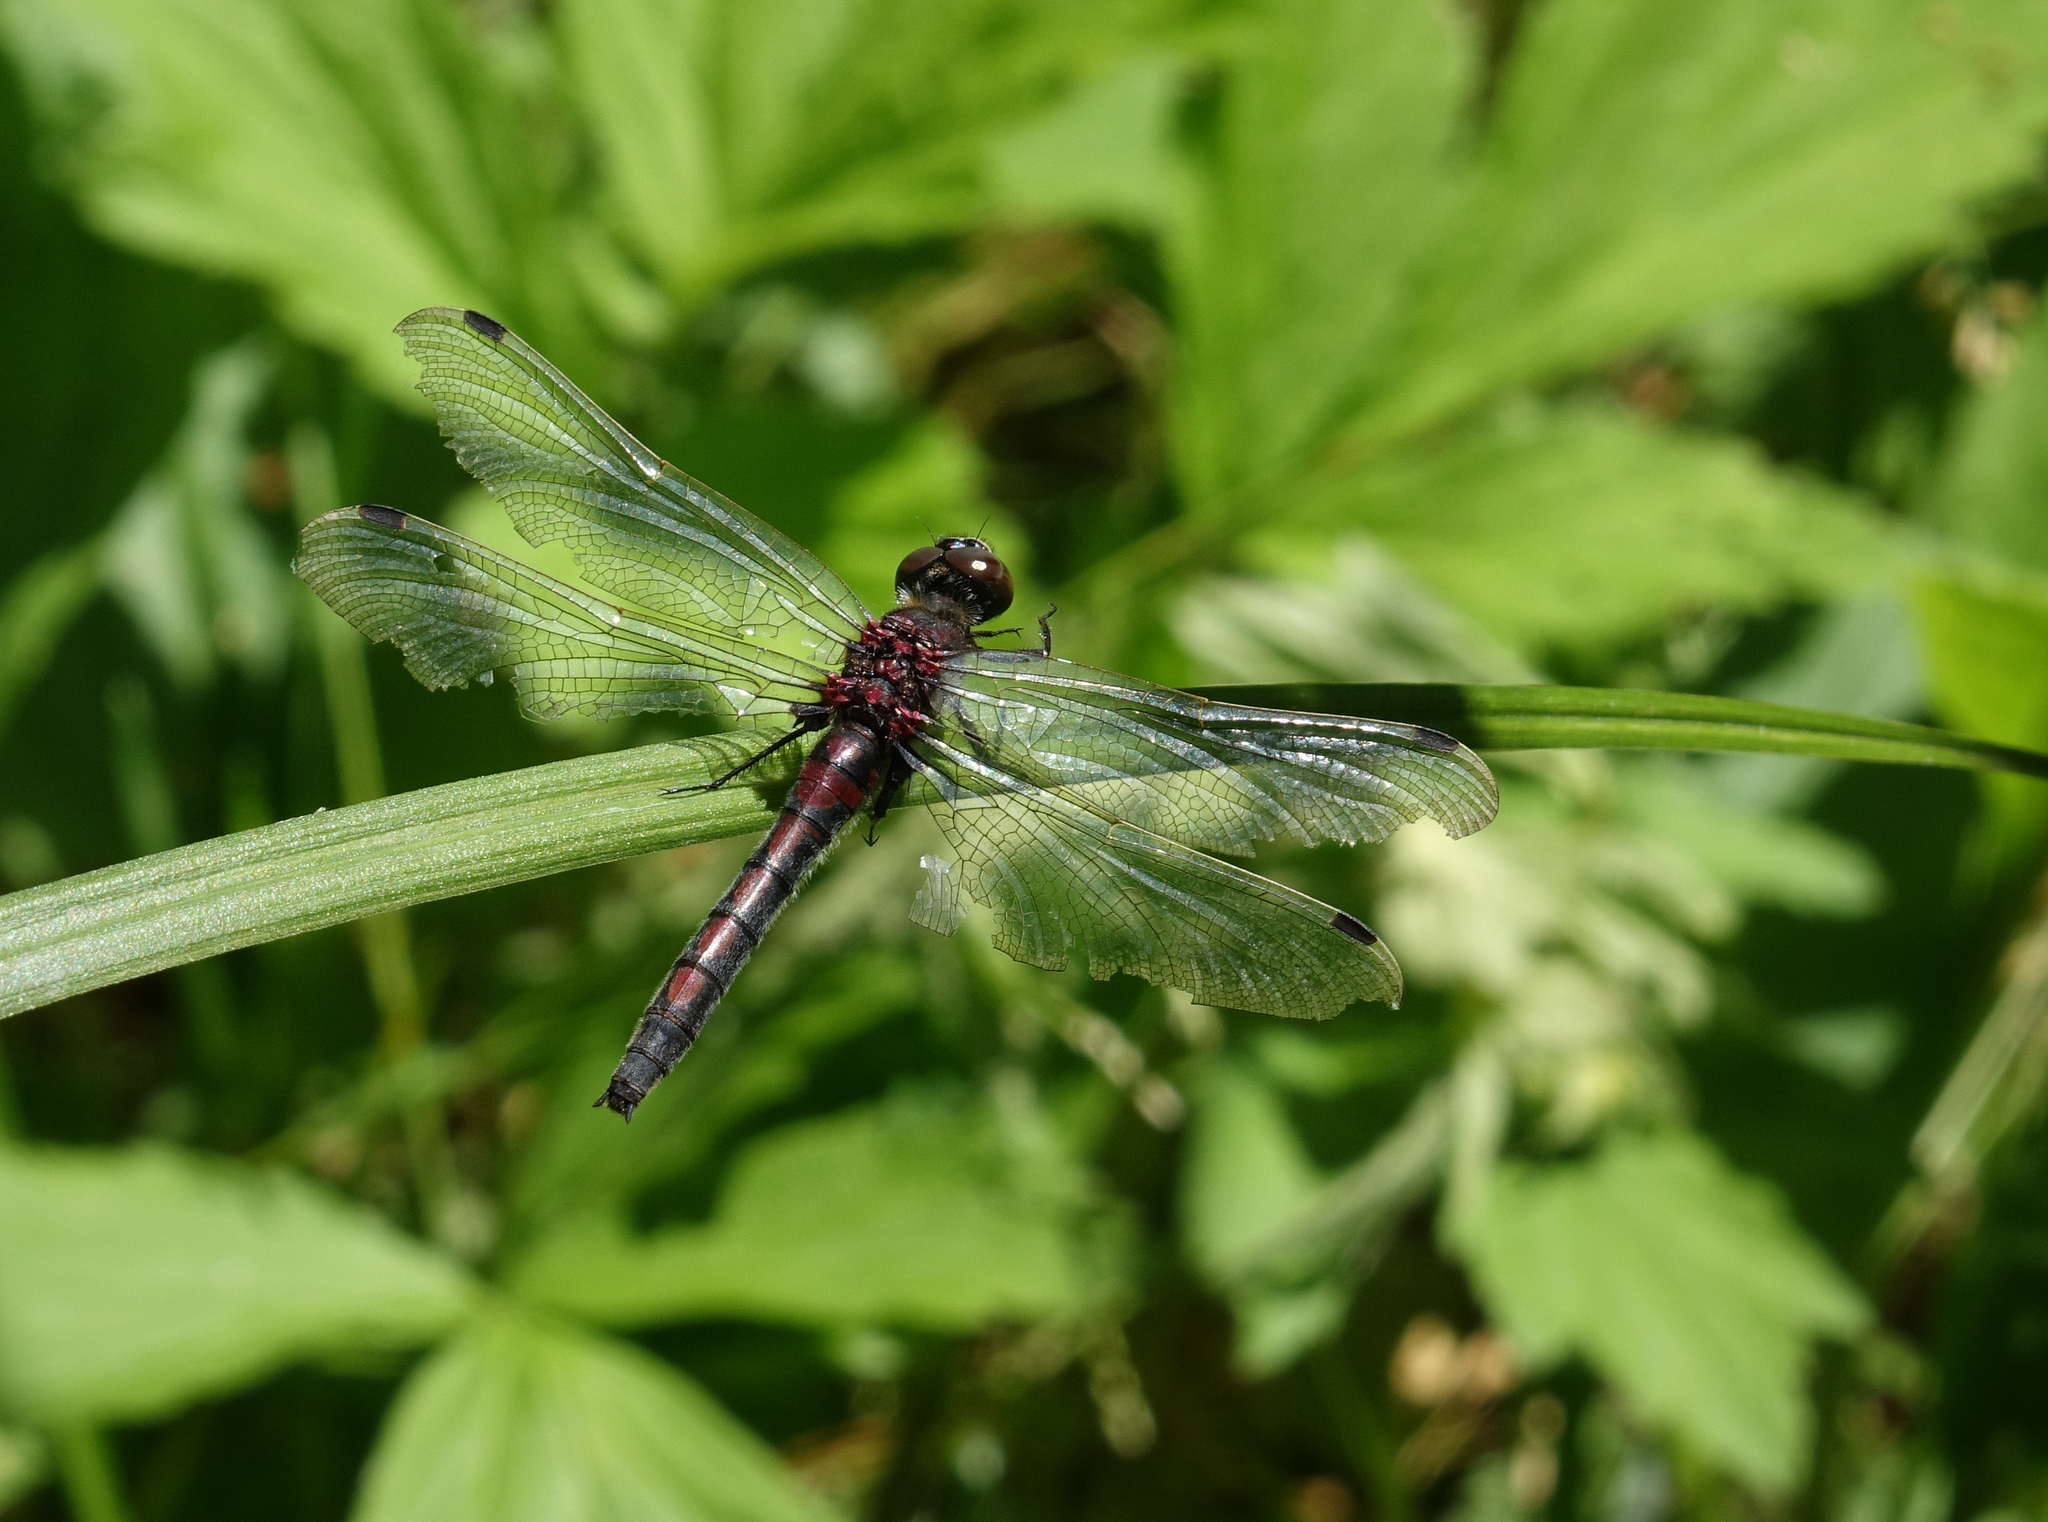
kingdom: Animalia
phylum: Arthropoda
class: Insecta
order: Odonata
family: Libellulidae
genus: Leucorrhinia
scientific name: Leucorrhinia rubicunda
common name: Ruby whiteface
